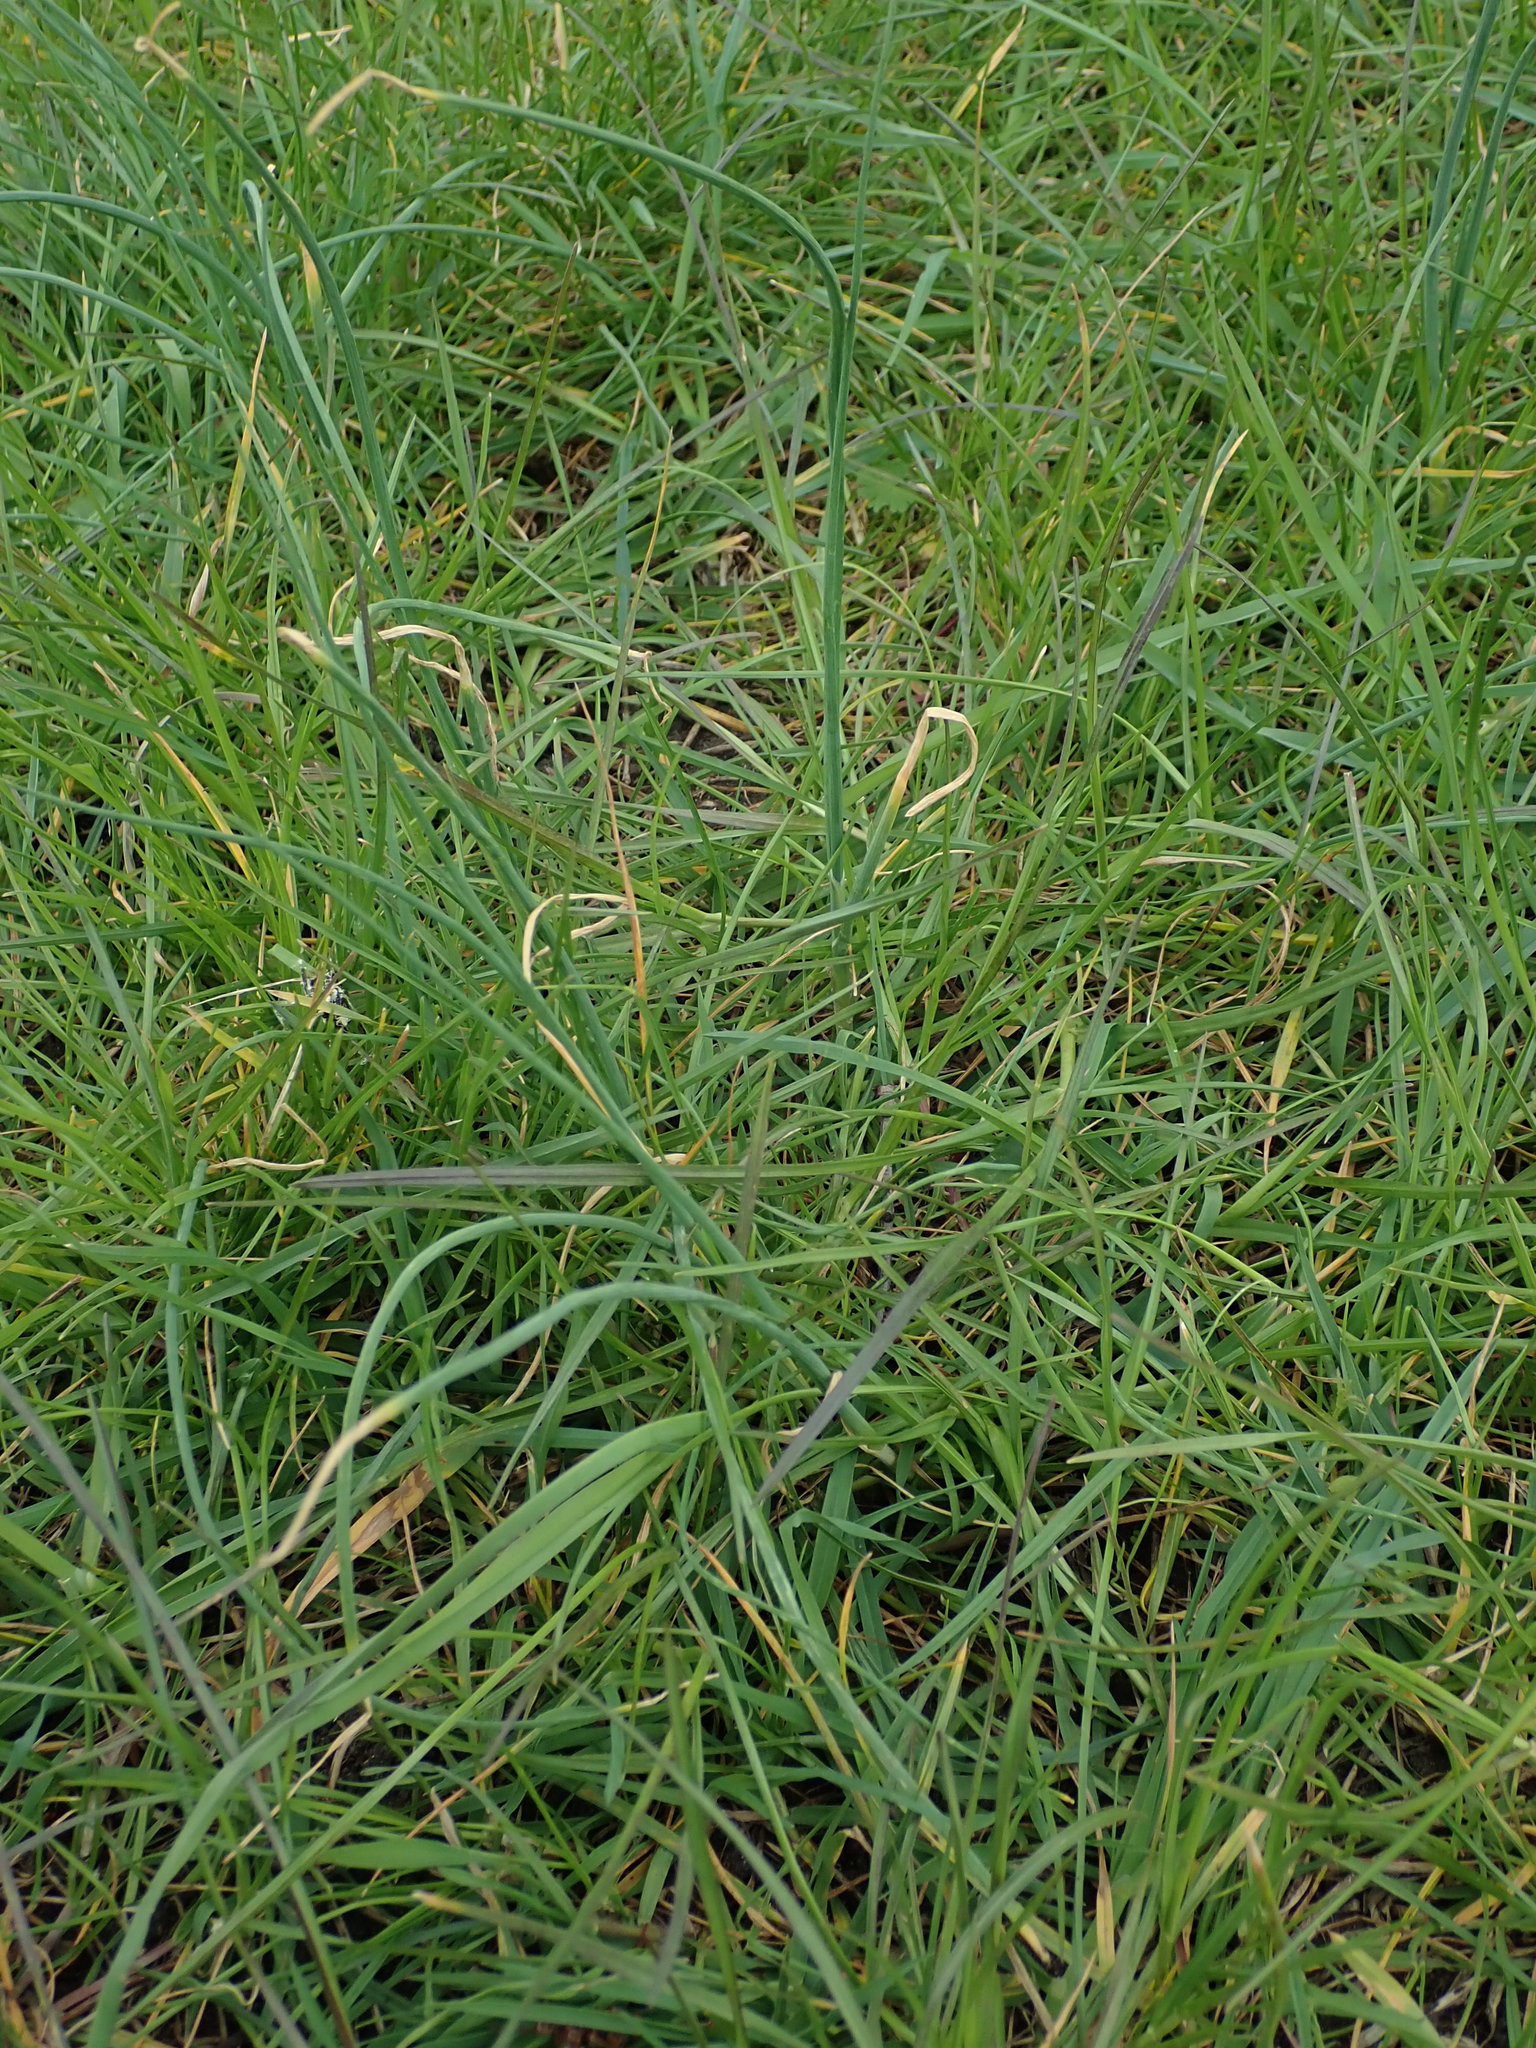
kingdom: Plantae
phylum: Tracheophyta
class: Liliopsida
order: Asparagales
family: Amaryllidaceae
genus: Allium
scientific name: Allium vineale
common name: Crow garlic
